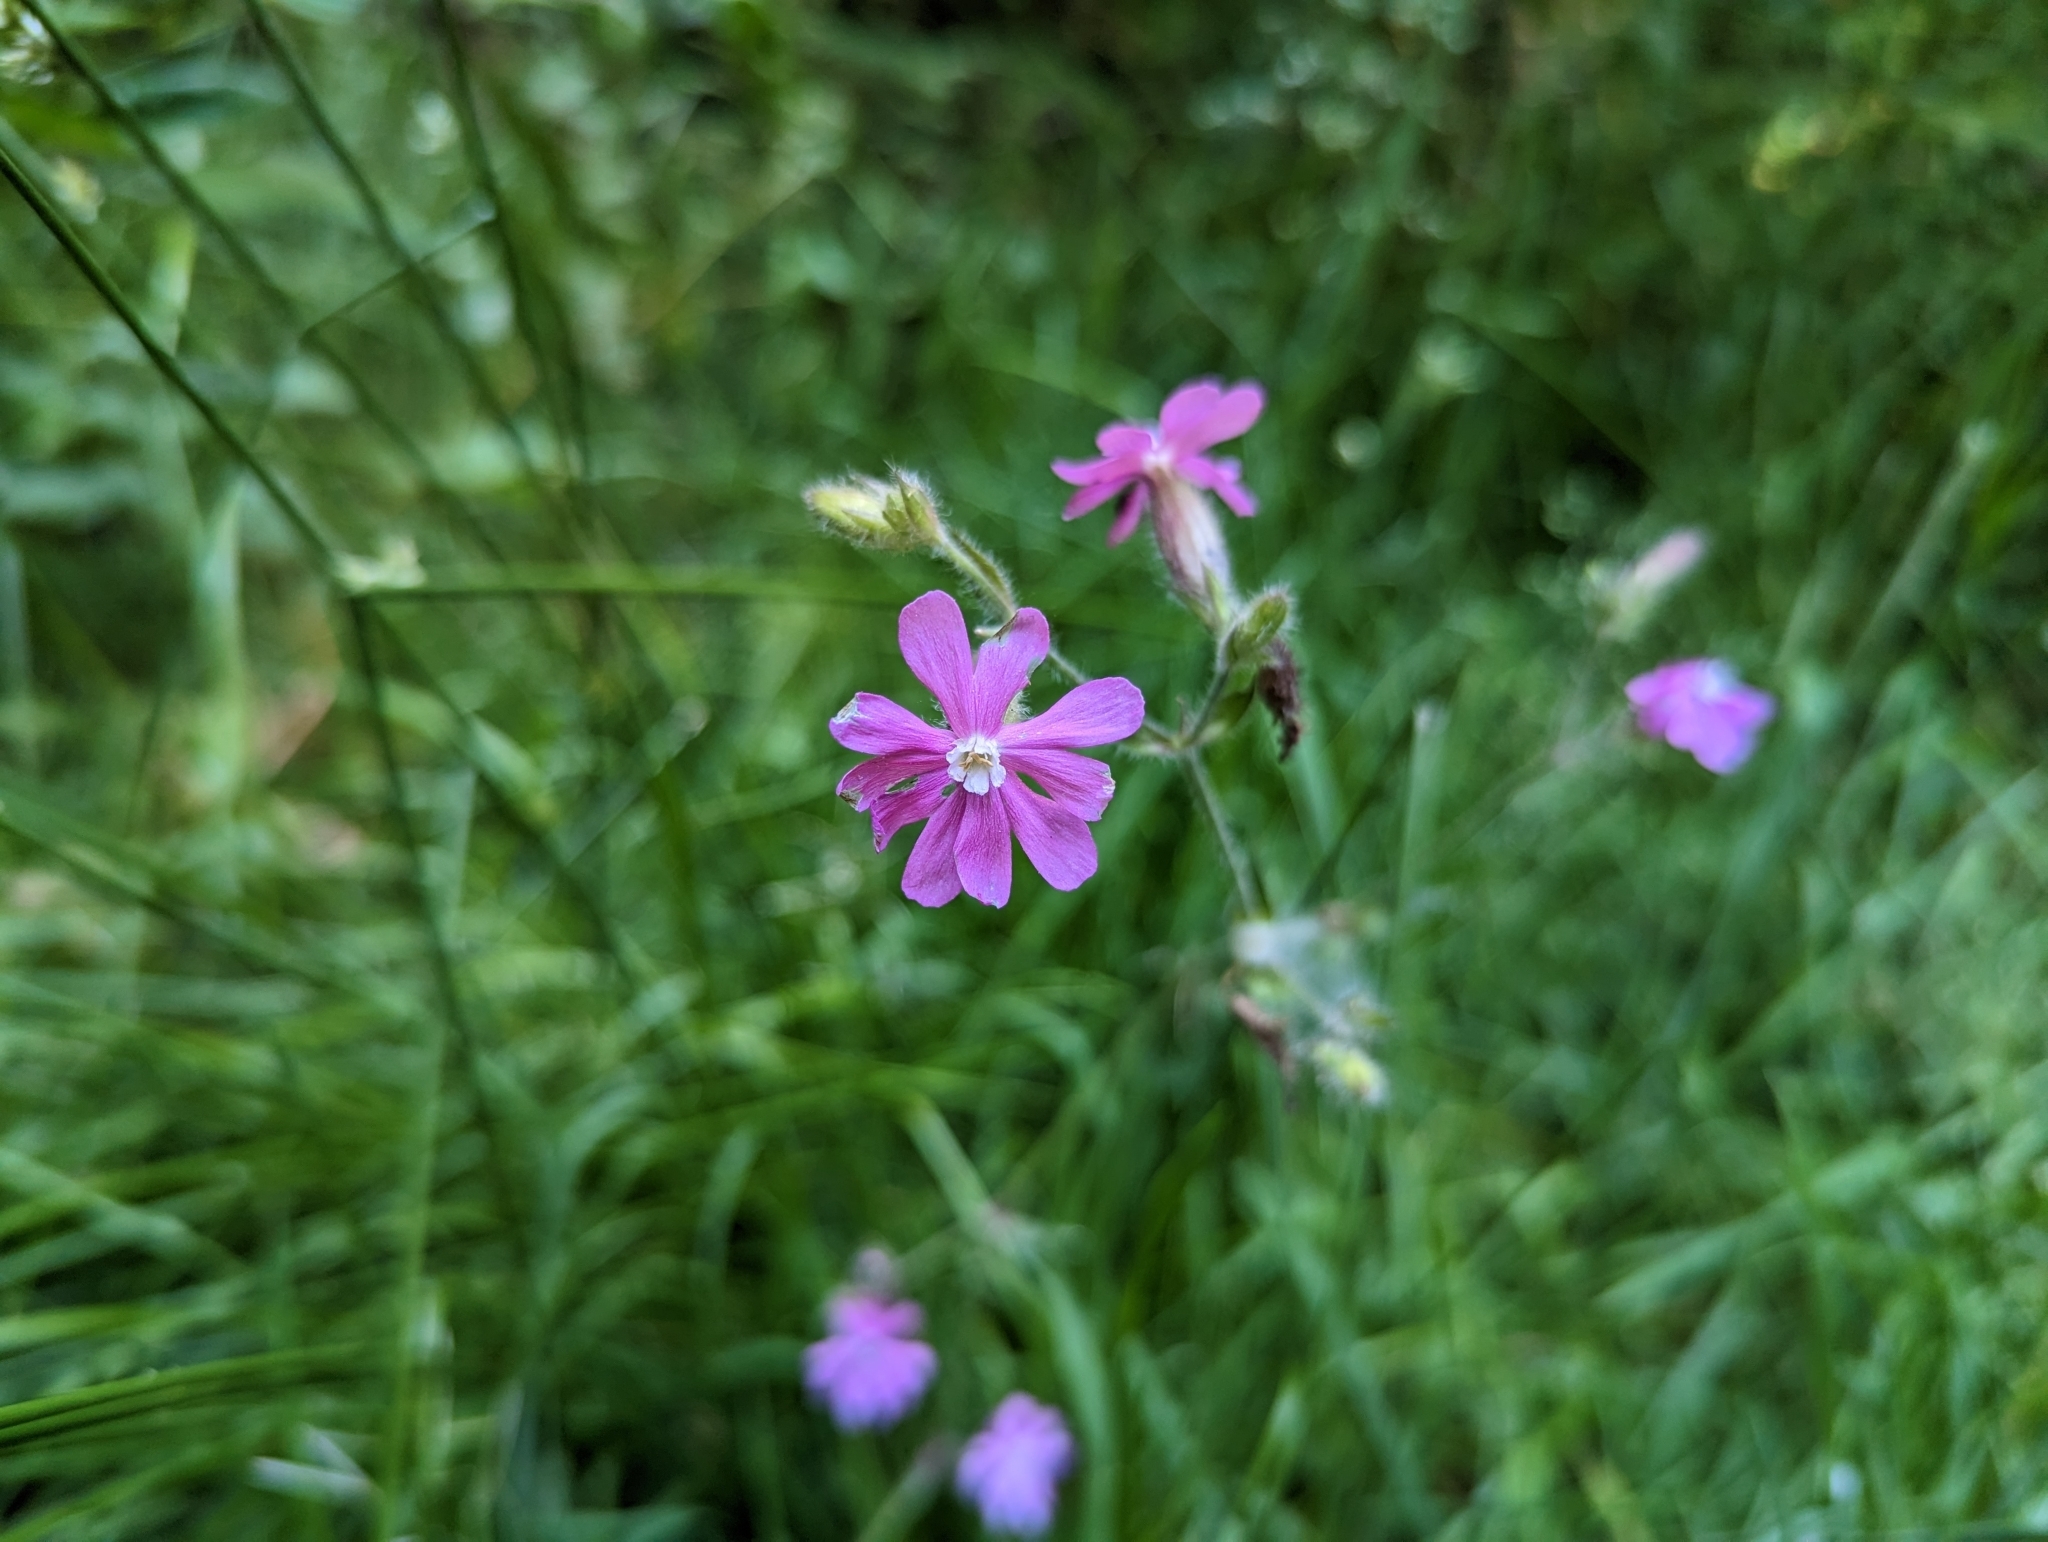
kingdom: Plantae
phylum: Tracheophyta
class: Magnoliopsida
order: Caryophyllales
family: Caryophyllaceae
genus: Silene
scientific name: Silene dioica
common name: Red campion
